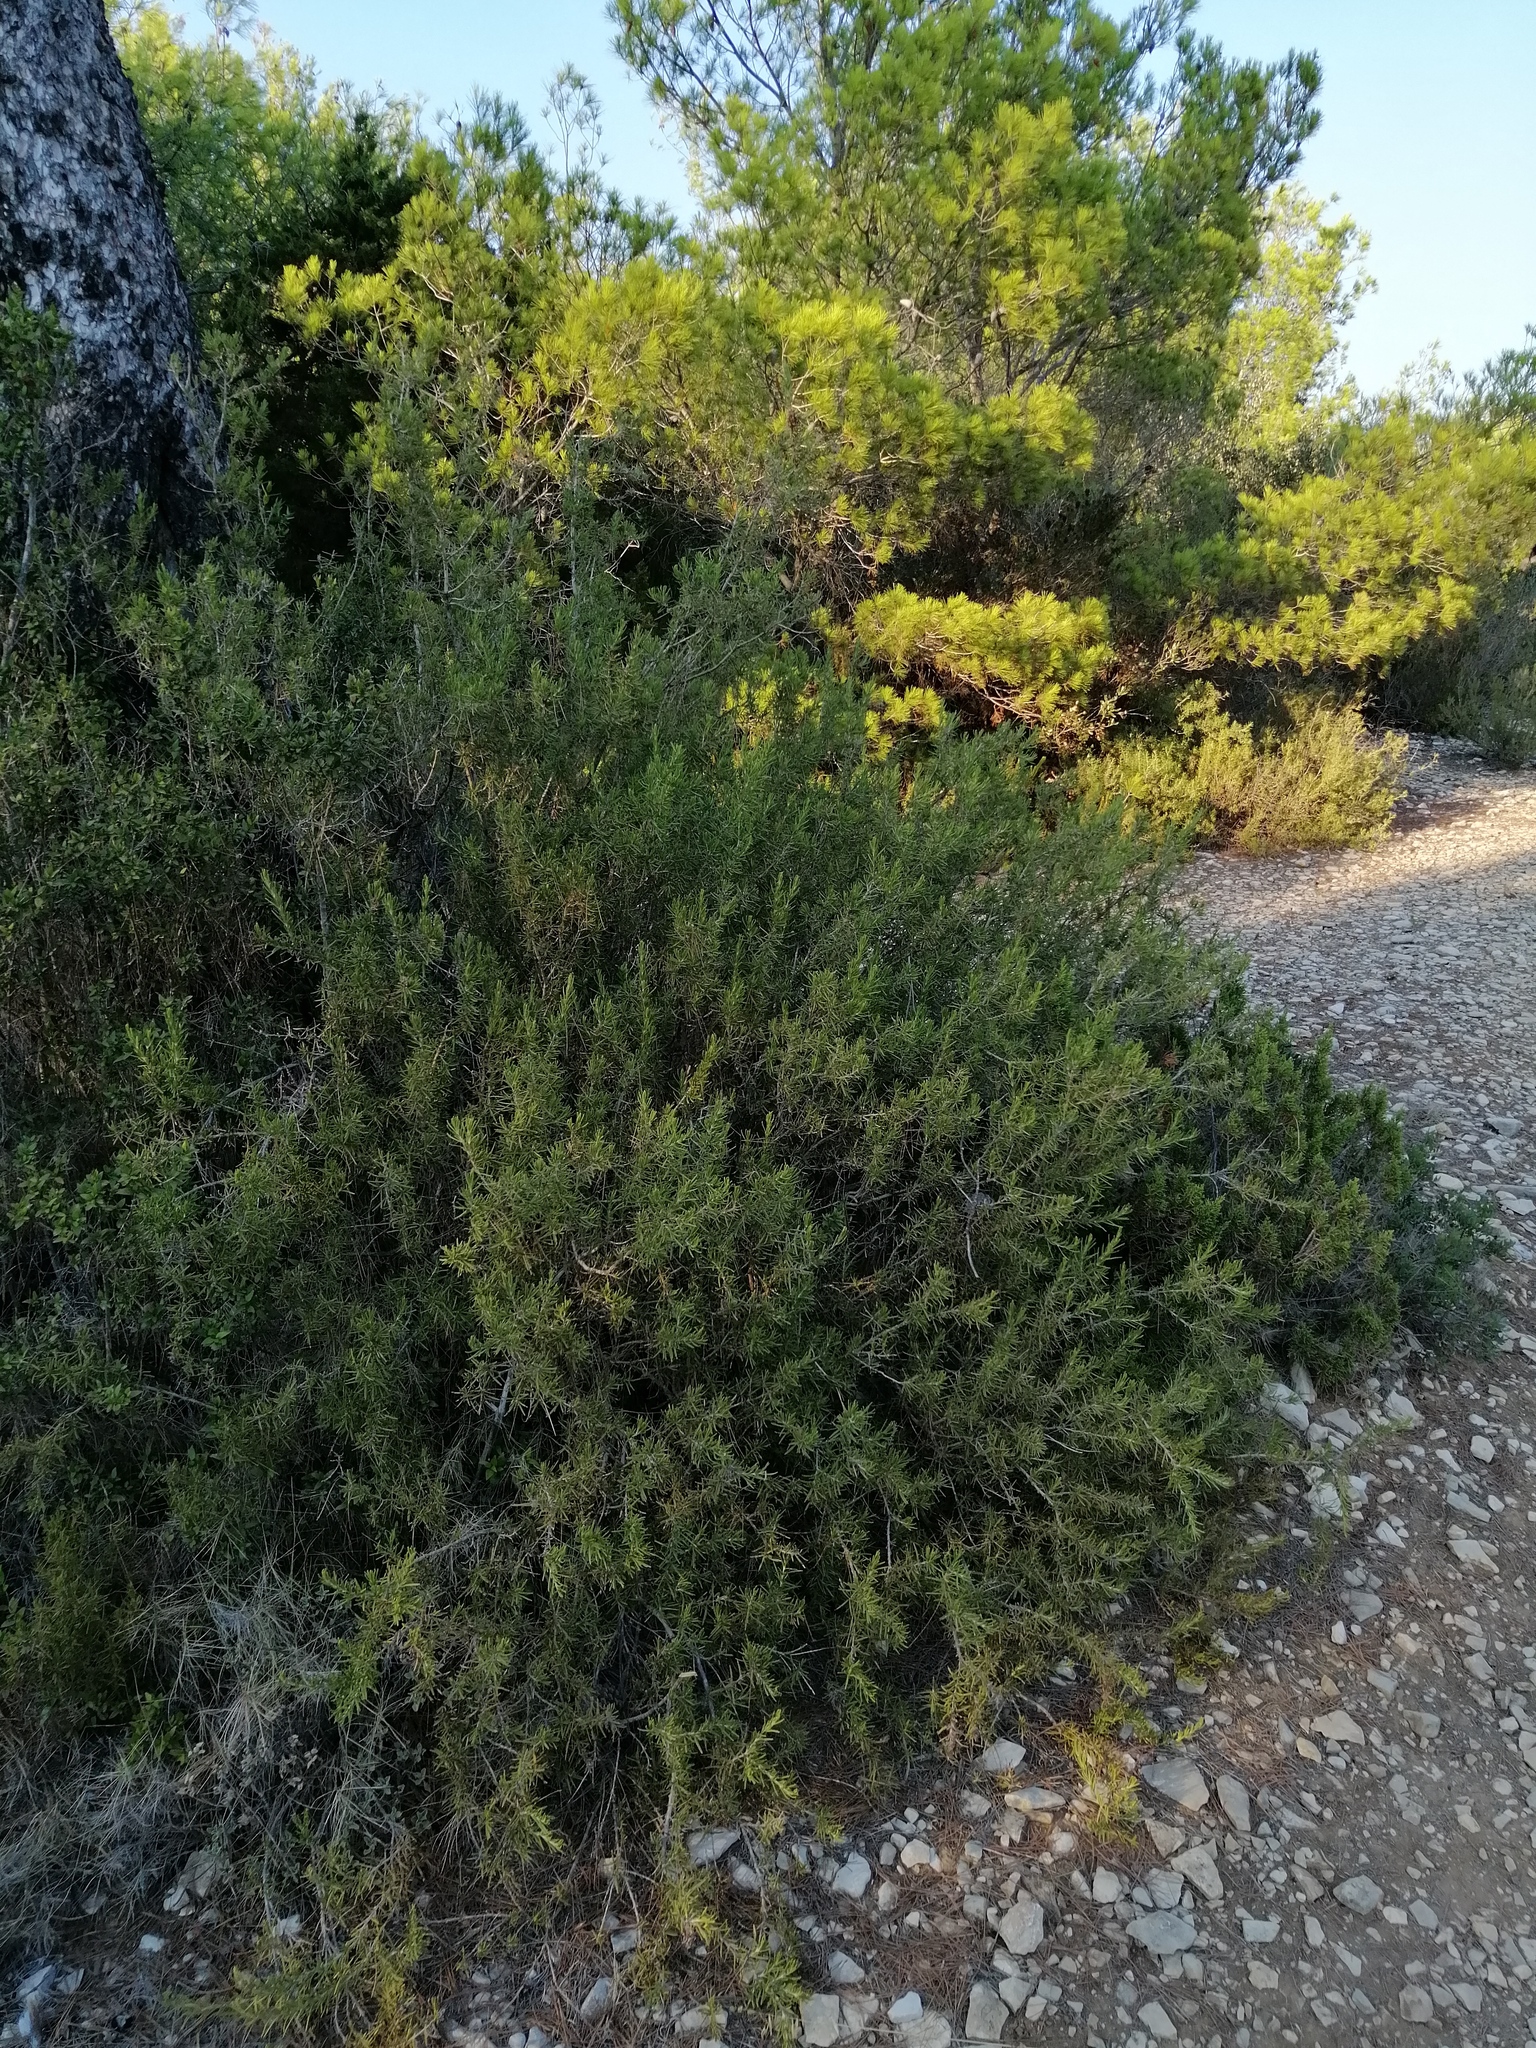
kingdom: Plantae
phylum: Tracheophyta
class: Magnoliopsida
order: Lamiales
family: Lamiaceae
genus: Salvia
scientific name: Salvia rosmarinus
